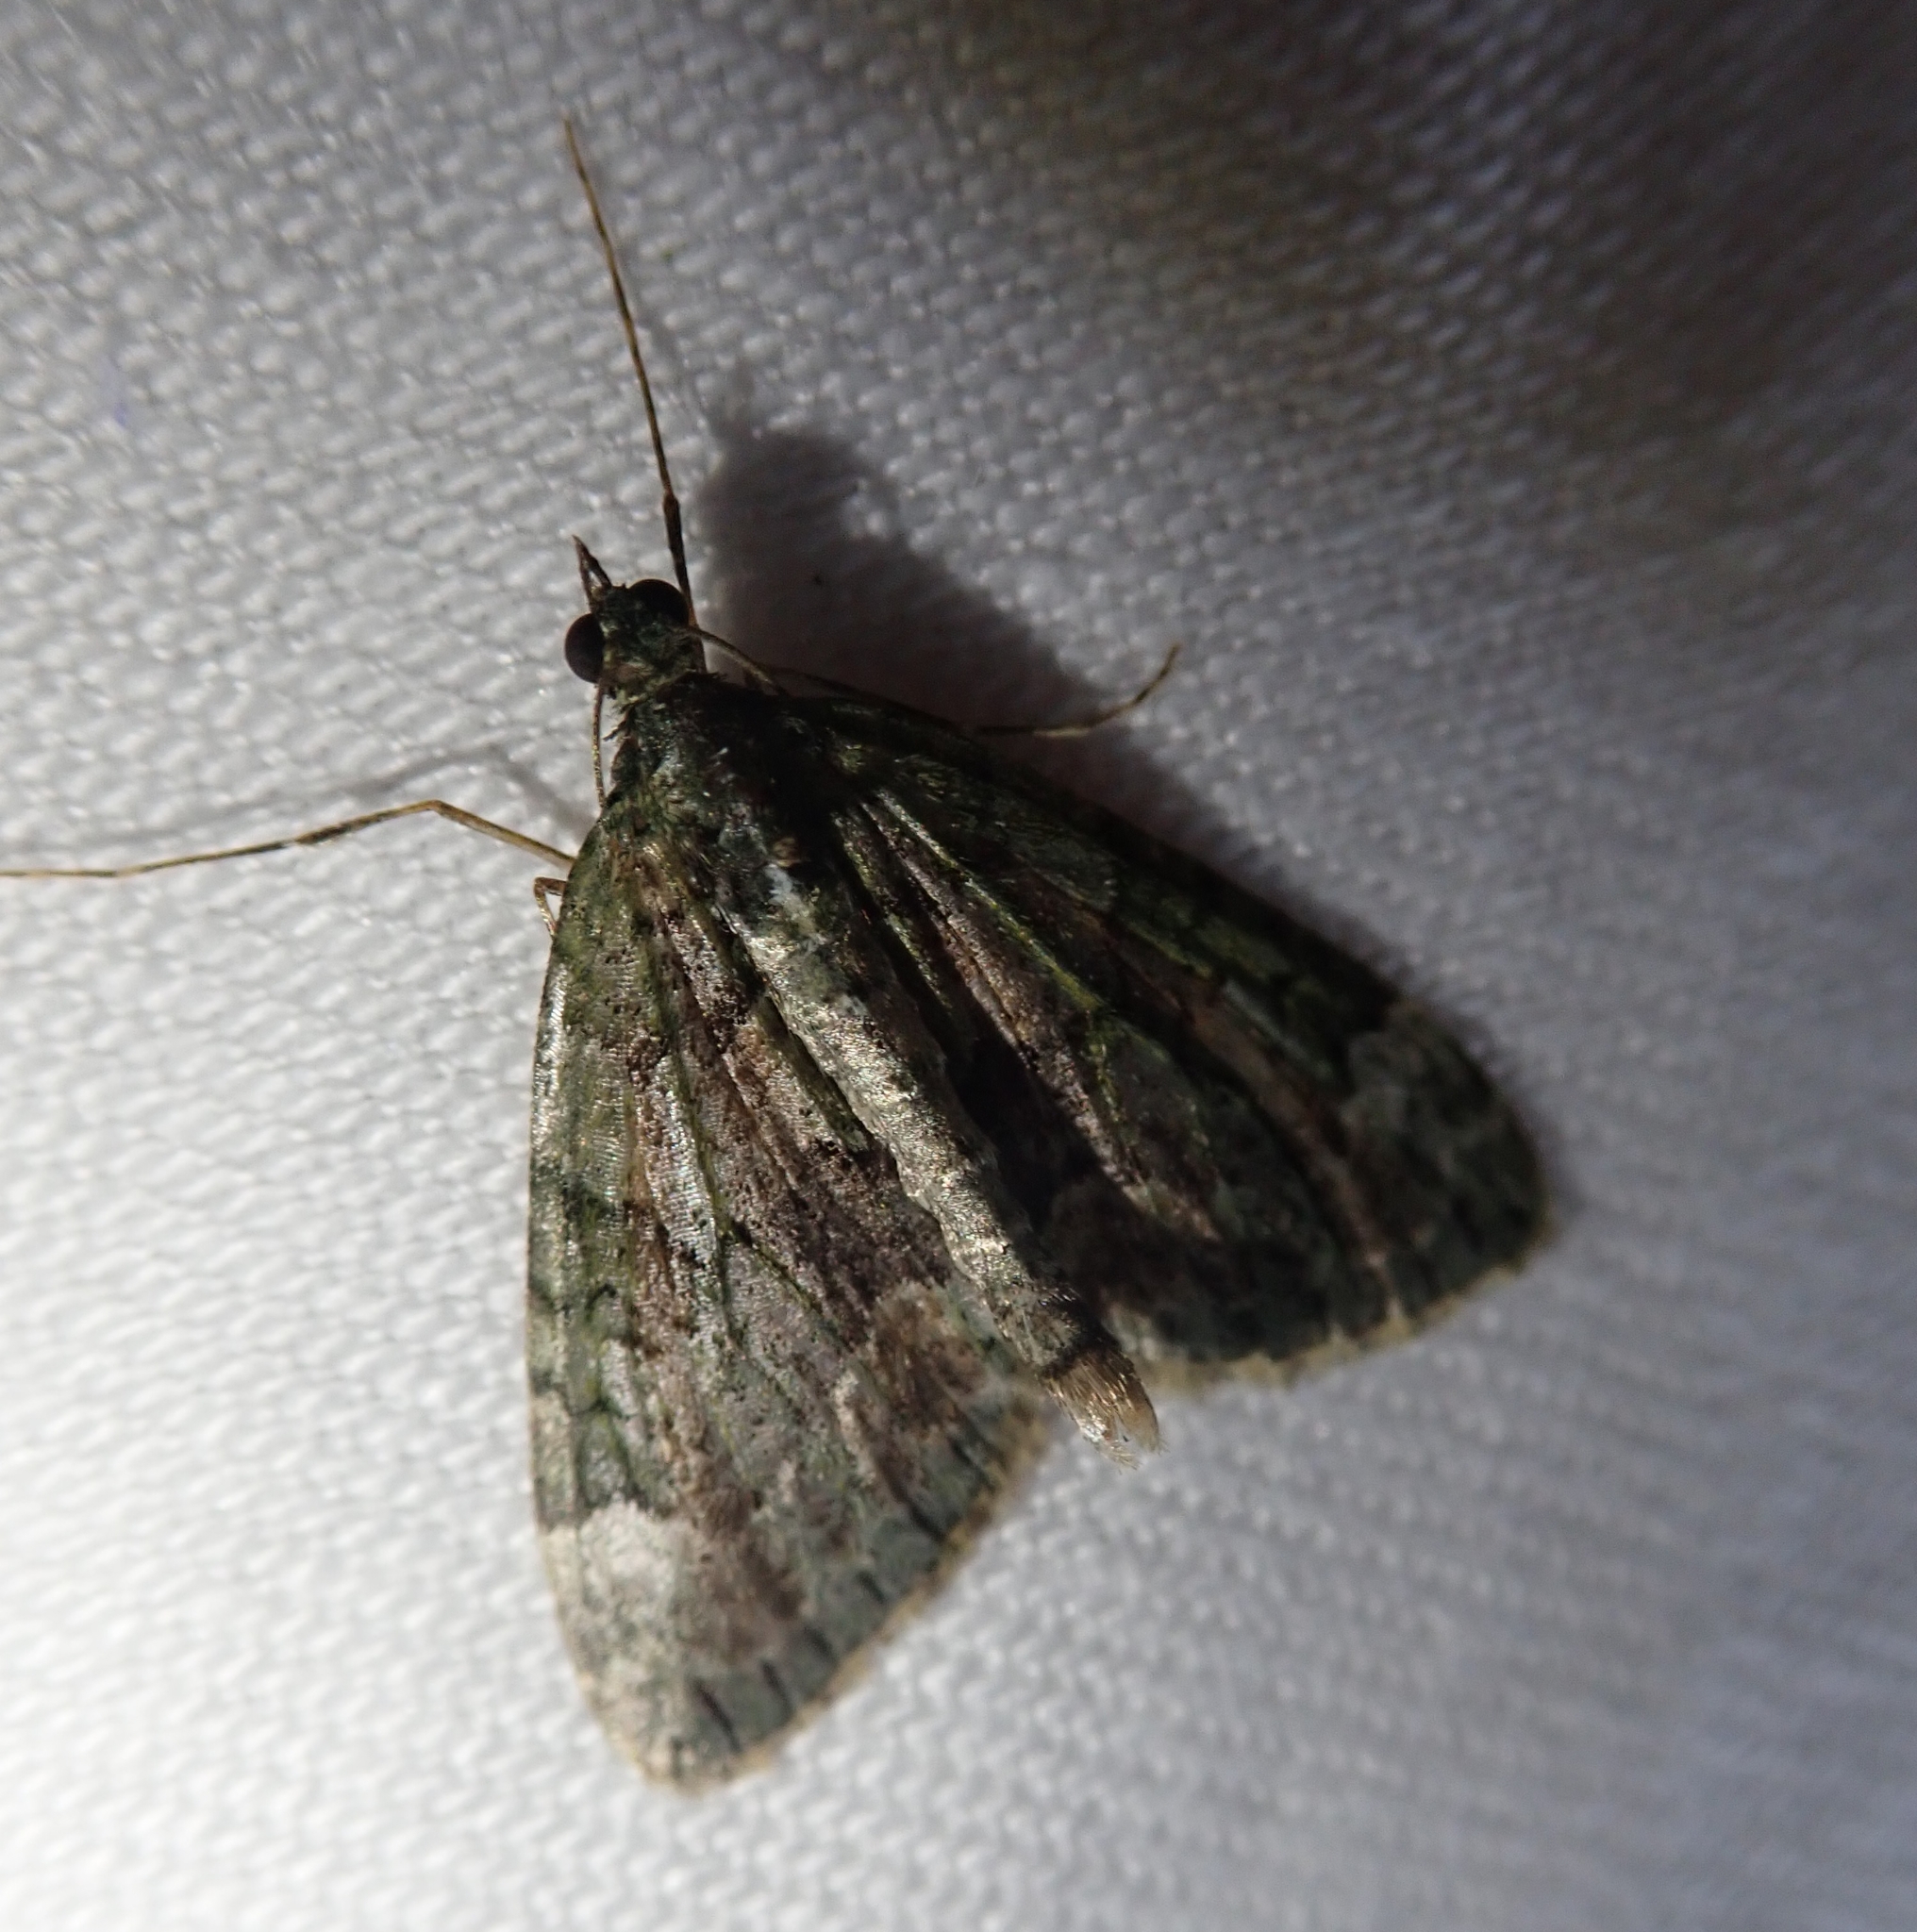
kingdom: Animalia
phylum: Arthropoda
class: Insecta
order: Lepidoptera
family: Geometridae
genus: Chloroclysta
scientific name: Chloroclysta siterata
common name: Red-green carpet
